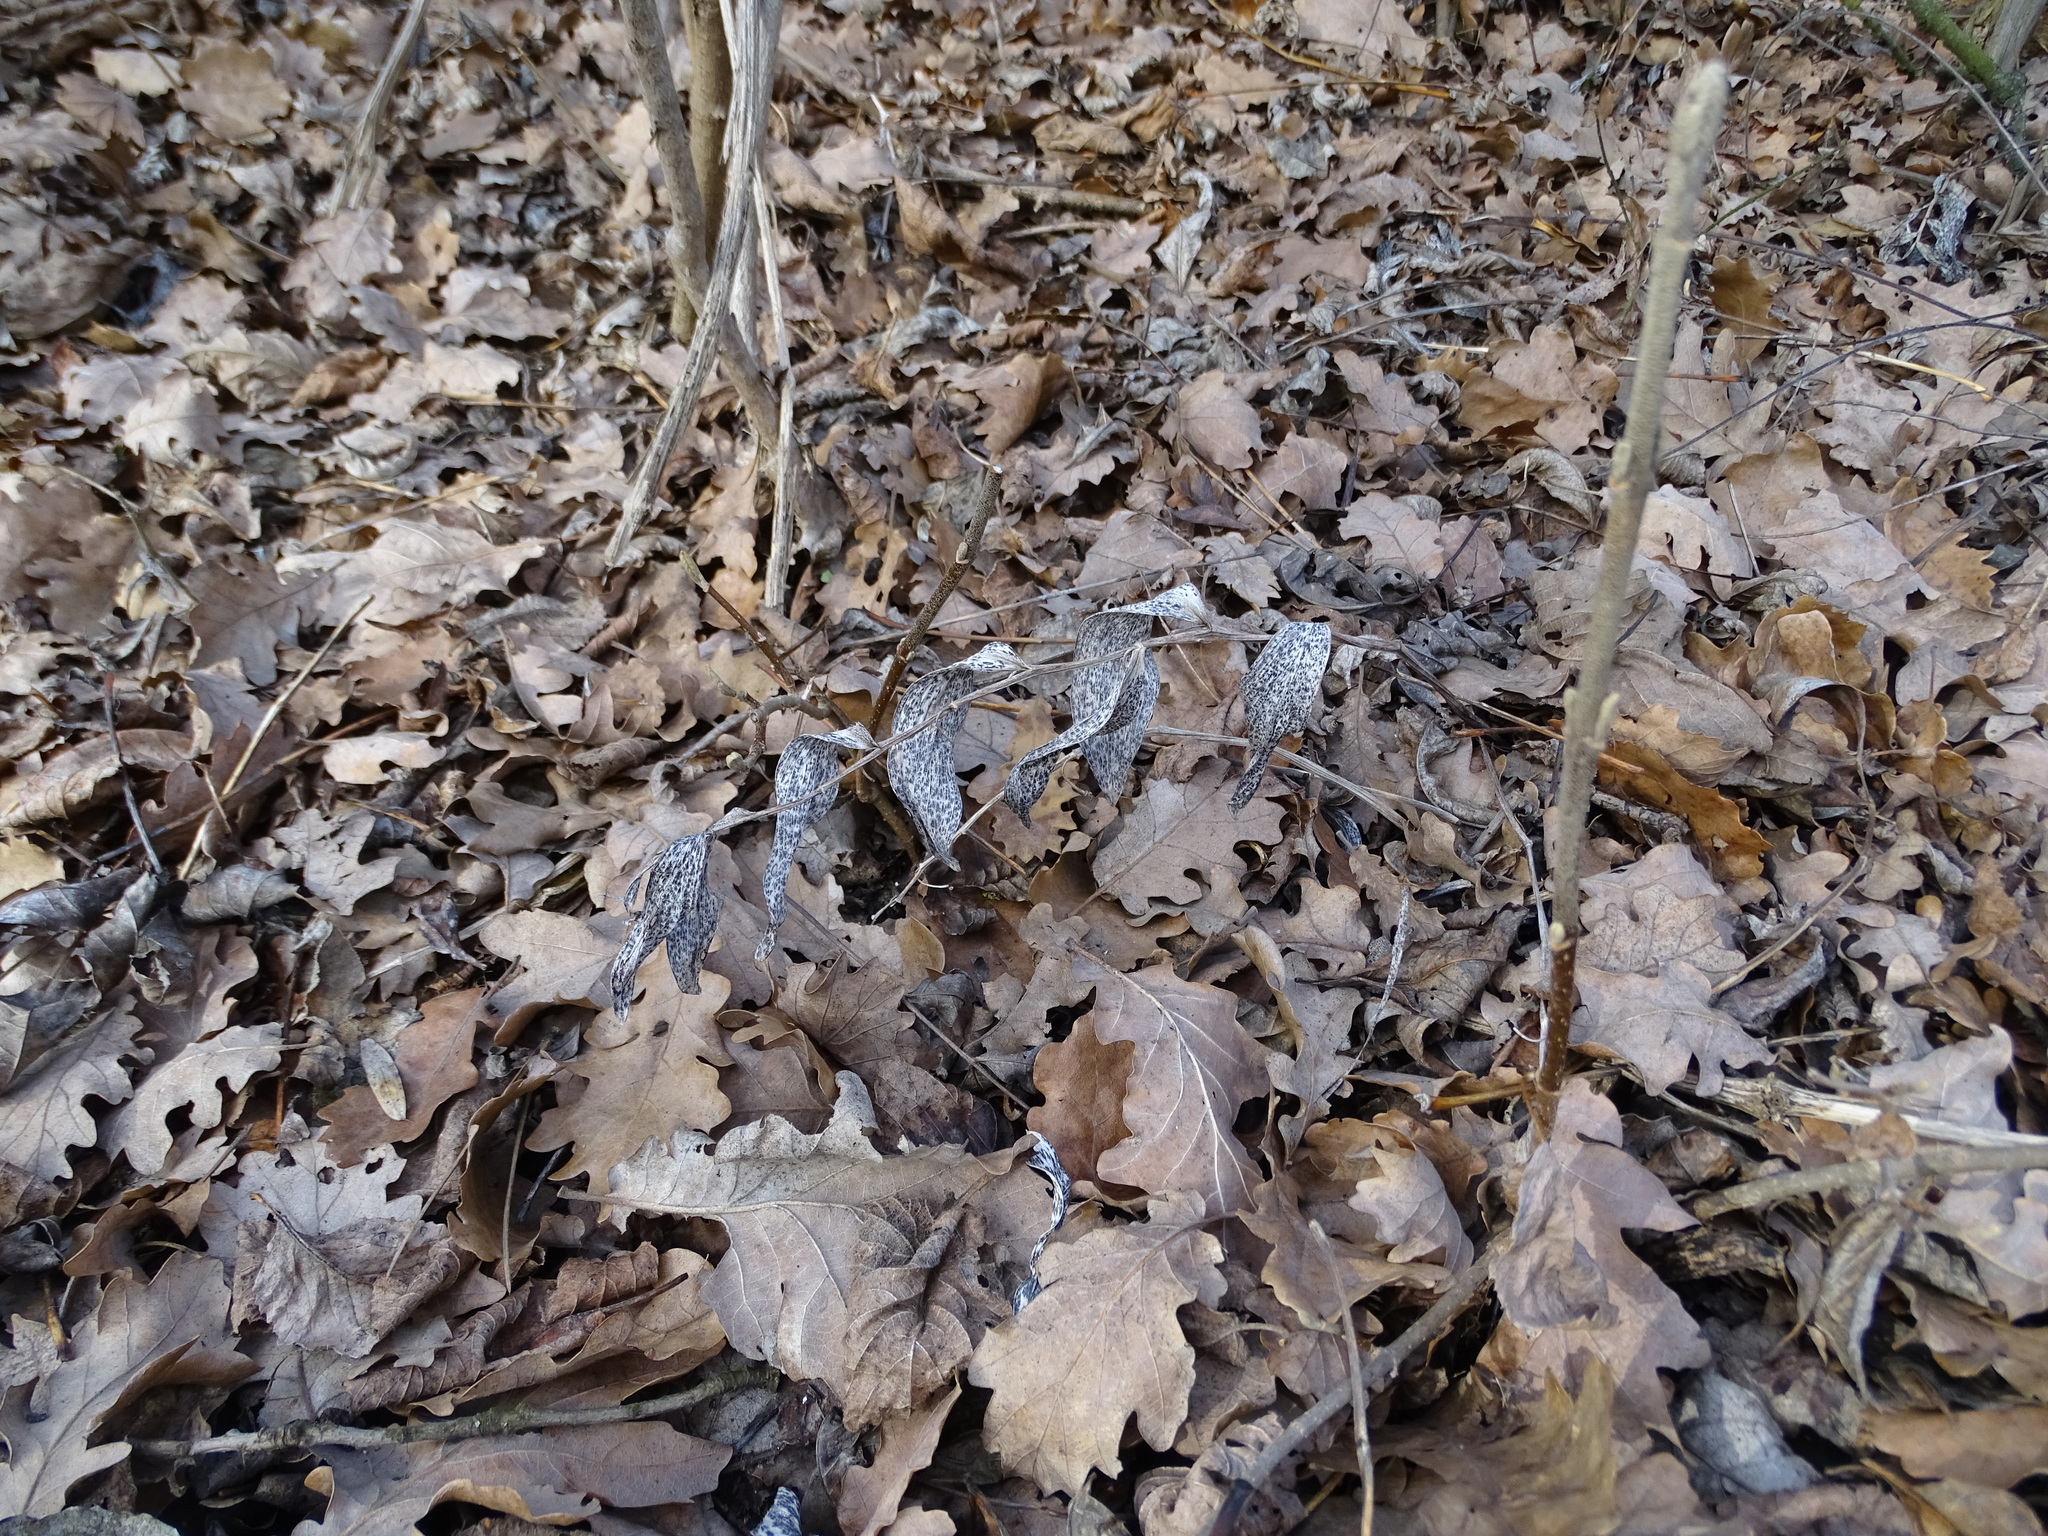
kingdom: Plantae
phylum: Tracheophyta
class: Liliopsida
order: Asparagales
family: Asparagaceae
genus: Polygonatum
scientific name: Polygonatum odoratum
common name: Angular solomon's-seal
